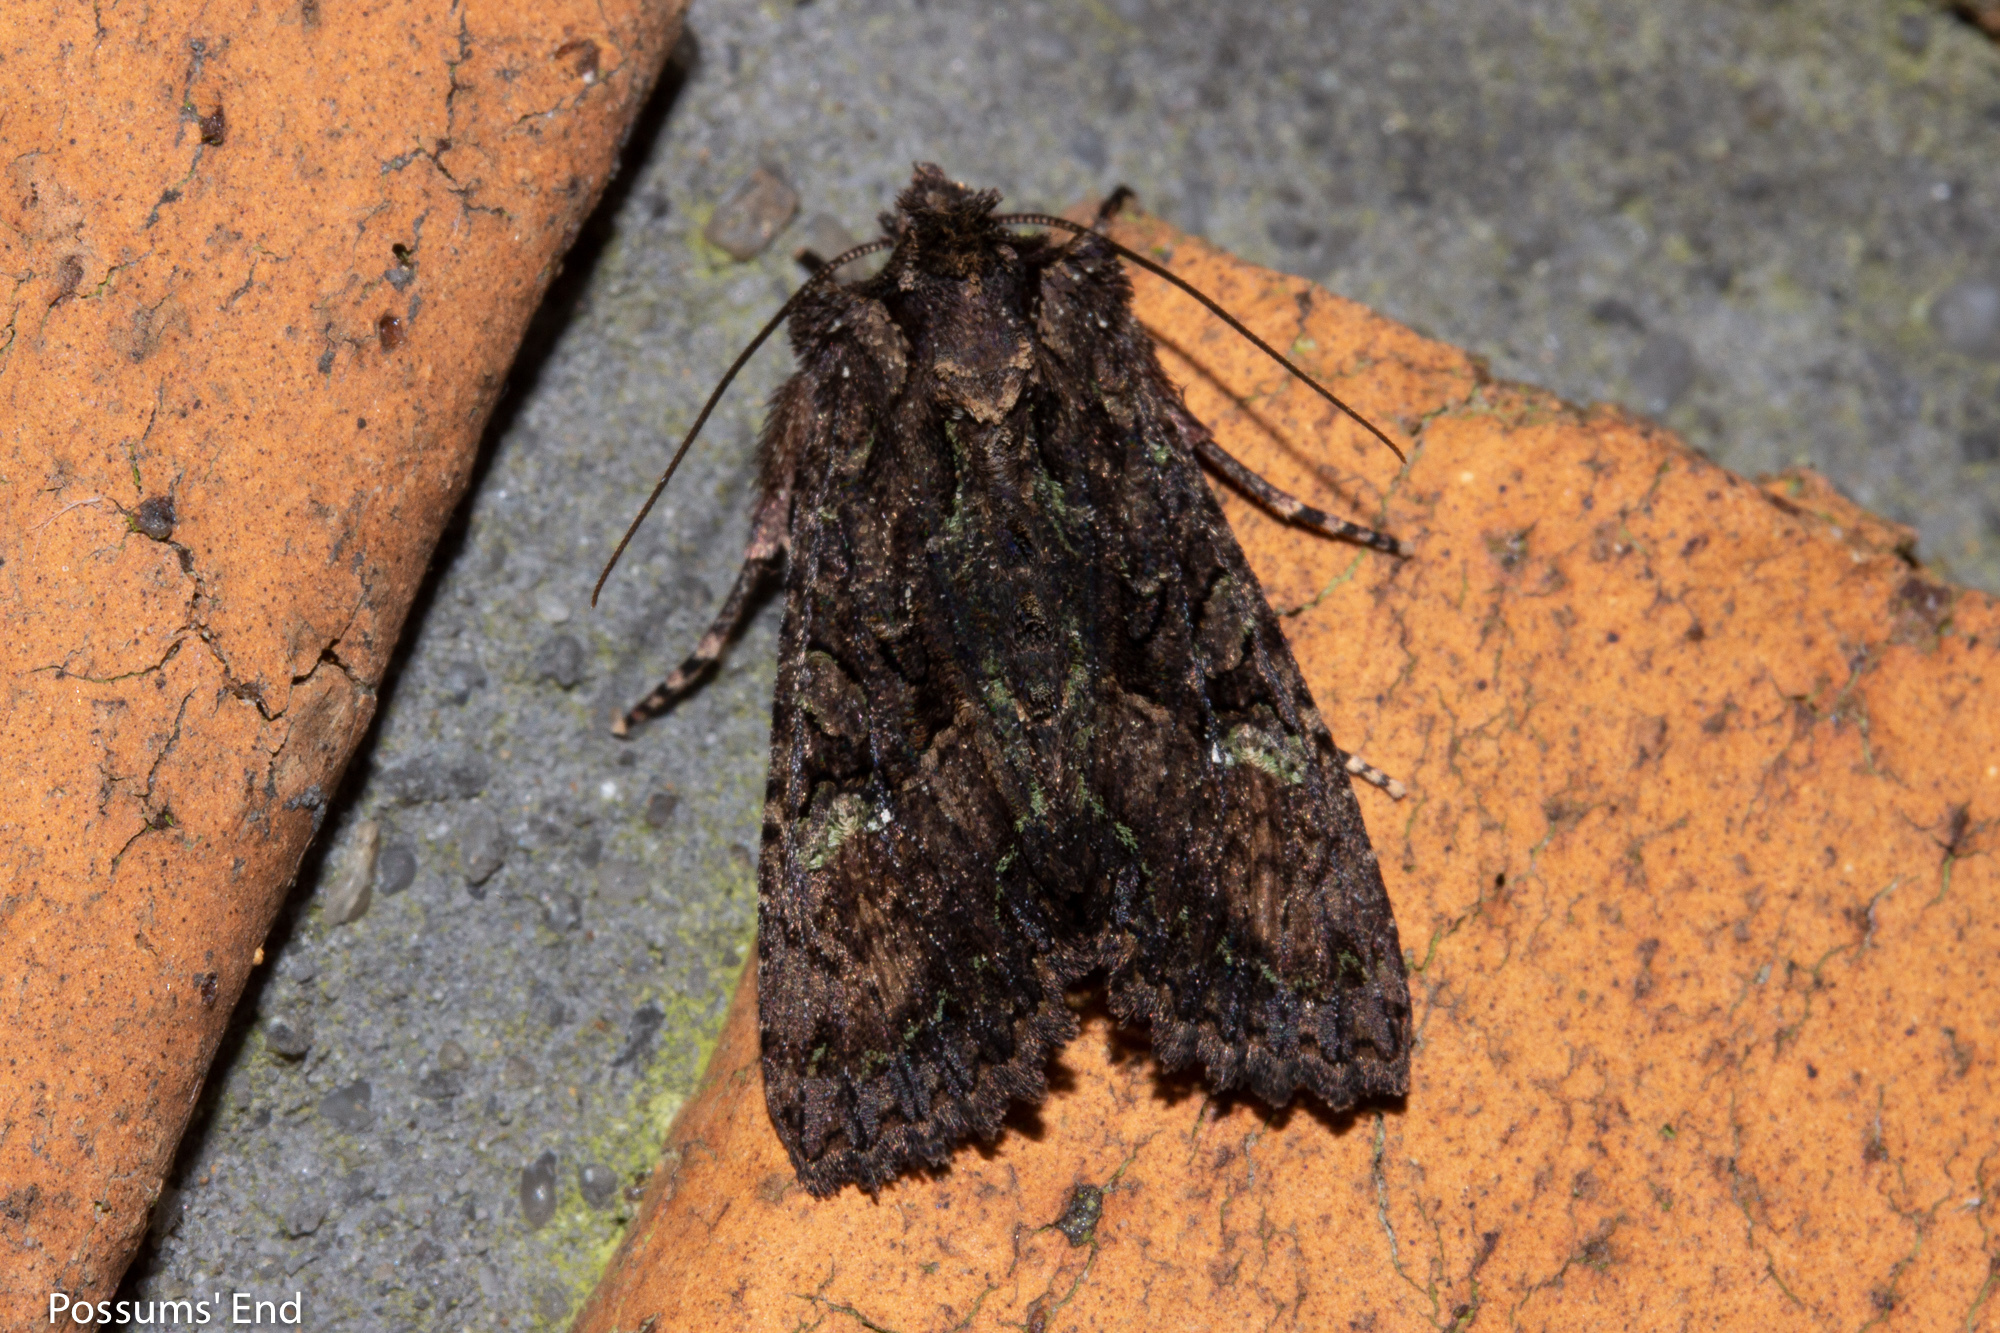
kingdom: Animalia
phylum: Arthropoda
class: Insecta
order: Lepidoptera
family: Noctuidae
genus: Meterana
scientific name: Meterana ochthistis
